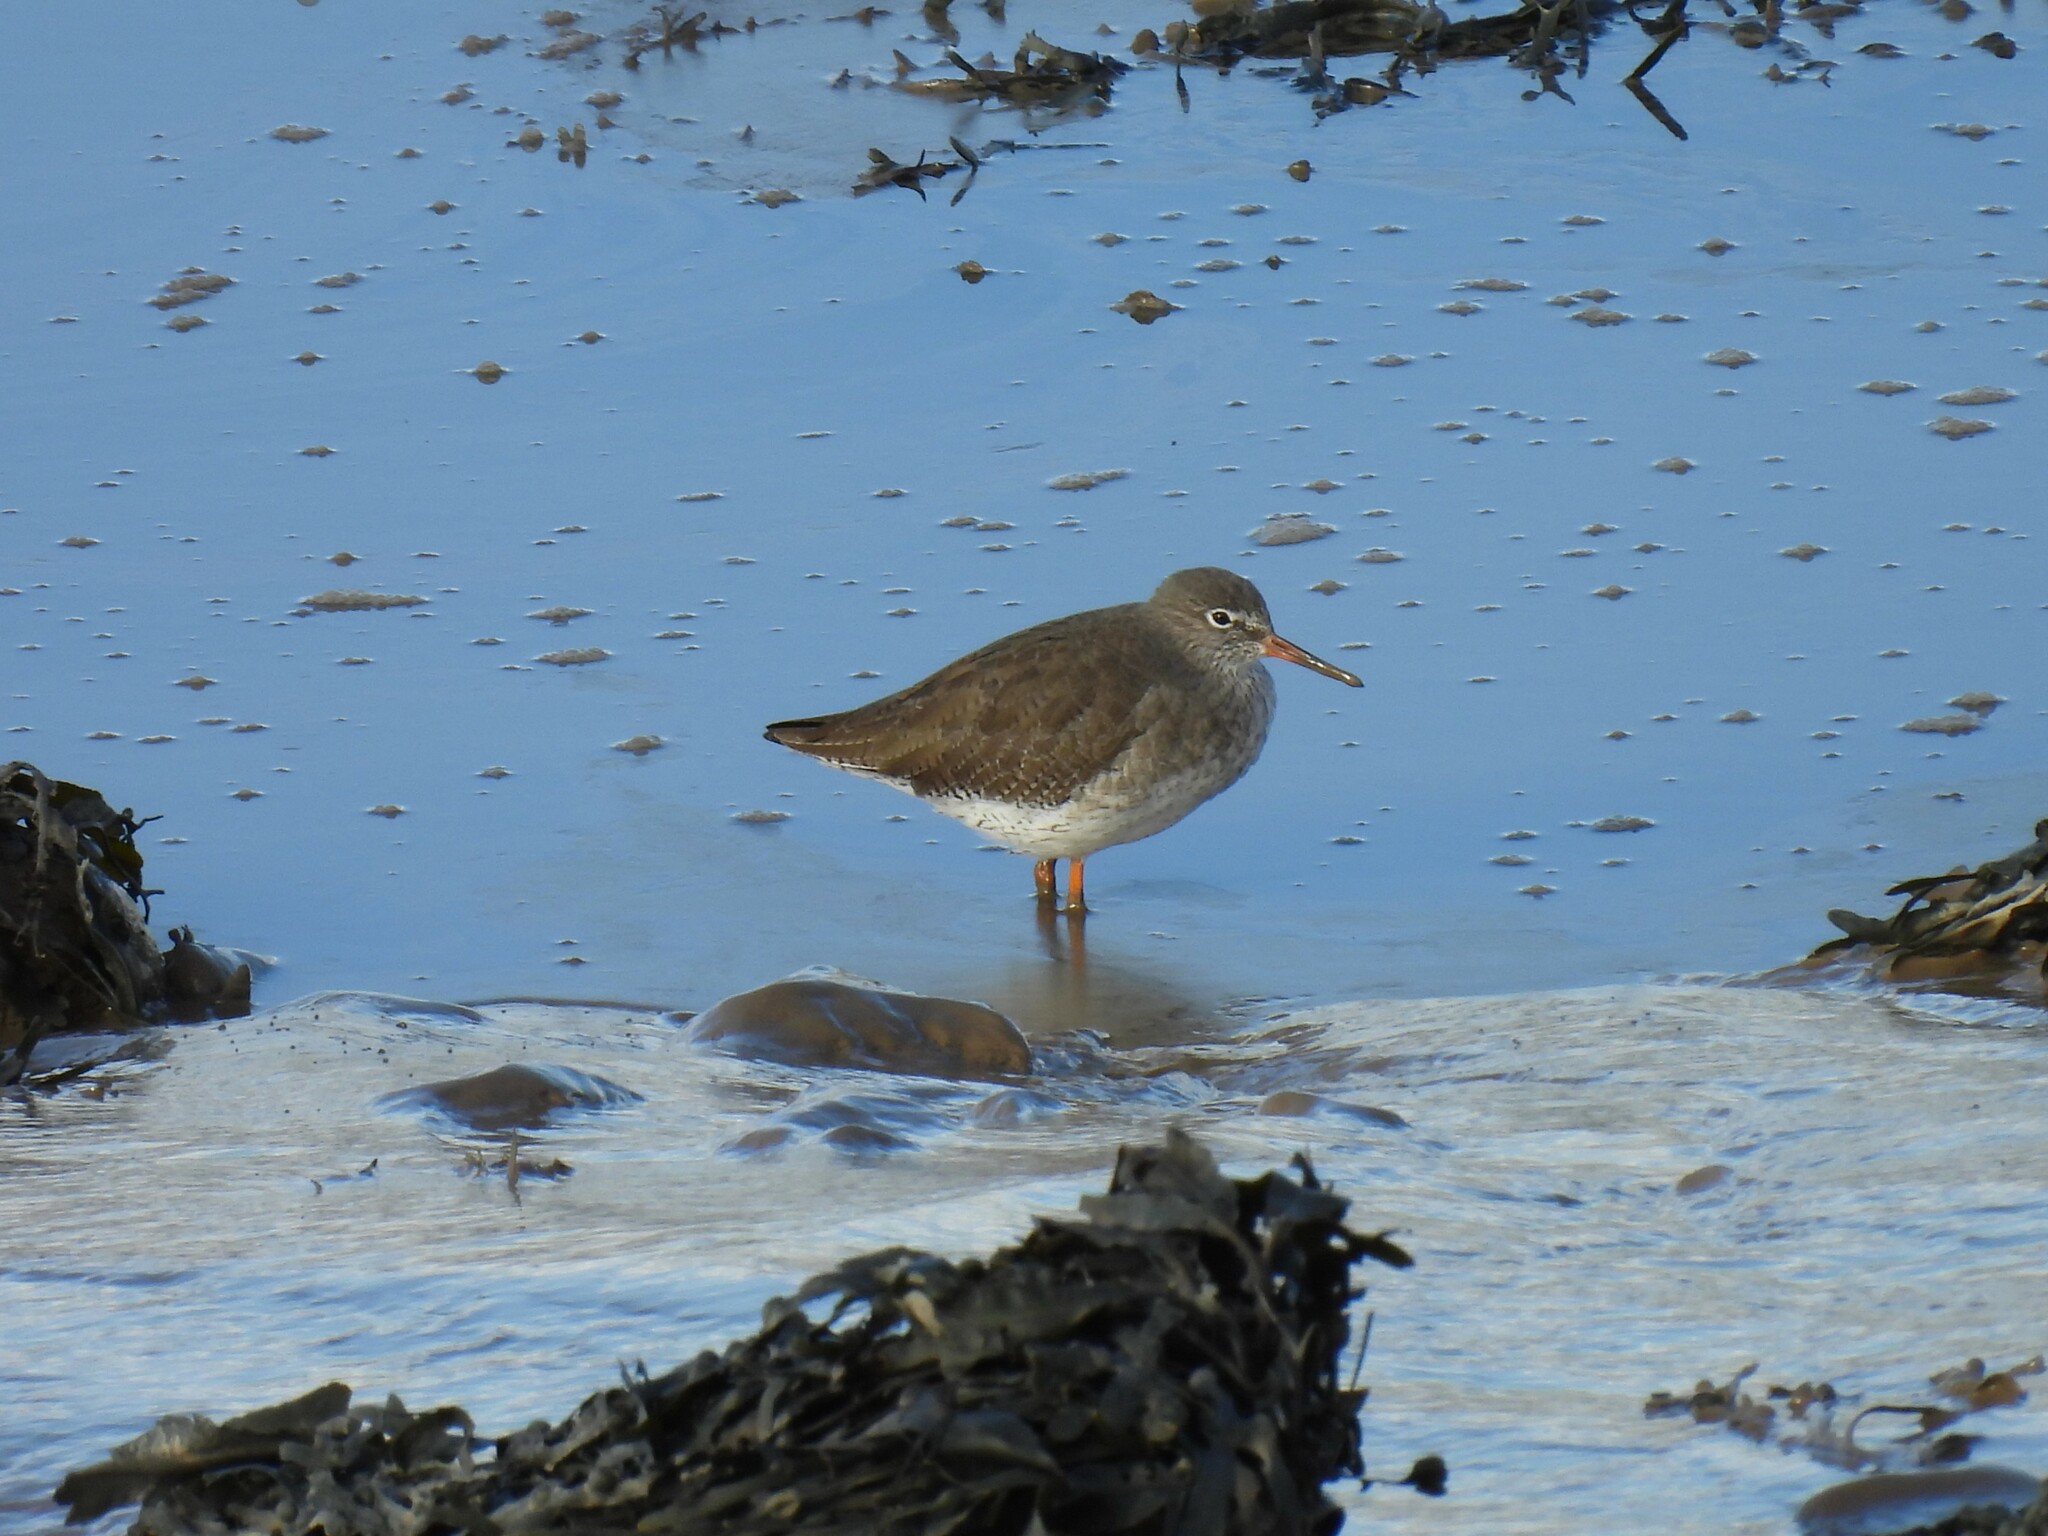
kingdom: Animalia
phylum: Chordata
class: Aves
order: Charadriiformes
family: Scolopacidae
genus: Tringa
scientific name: Tringa totanus
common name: Common redshank
